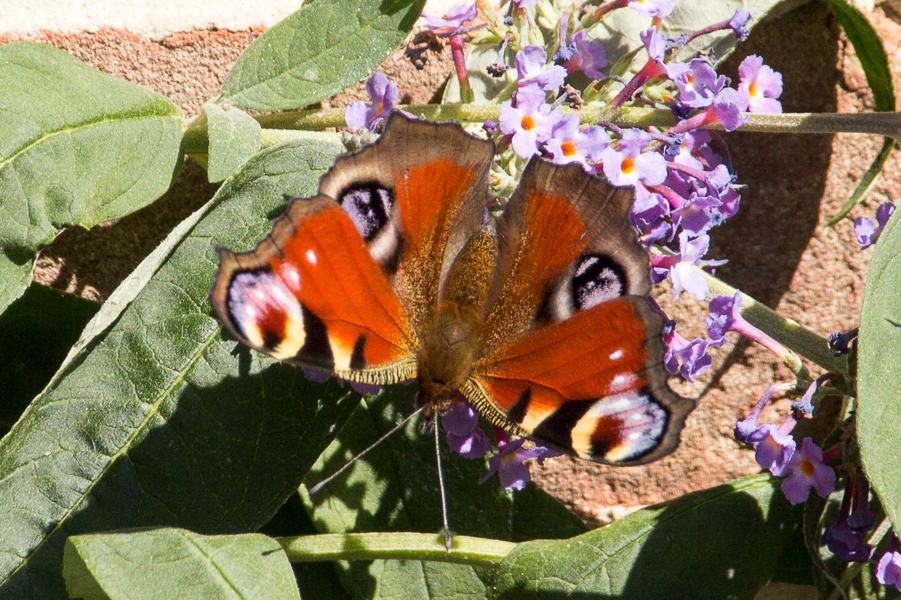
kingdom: Animalia
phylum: Arthropoda
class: Insecta
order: Lepidoptera
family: Nymphalidae
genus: Aglais
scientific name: Aglais io
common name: Peacock
